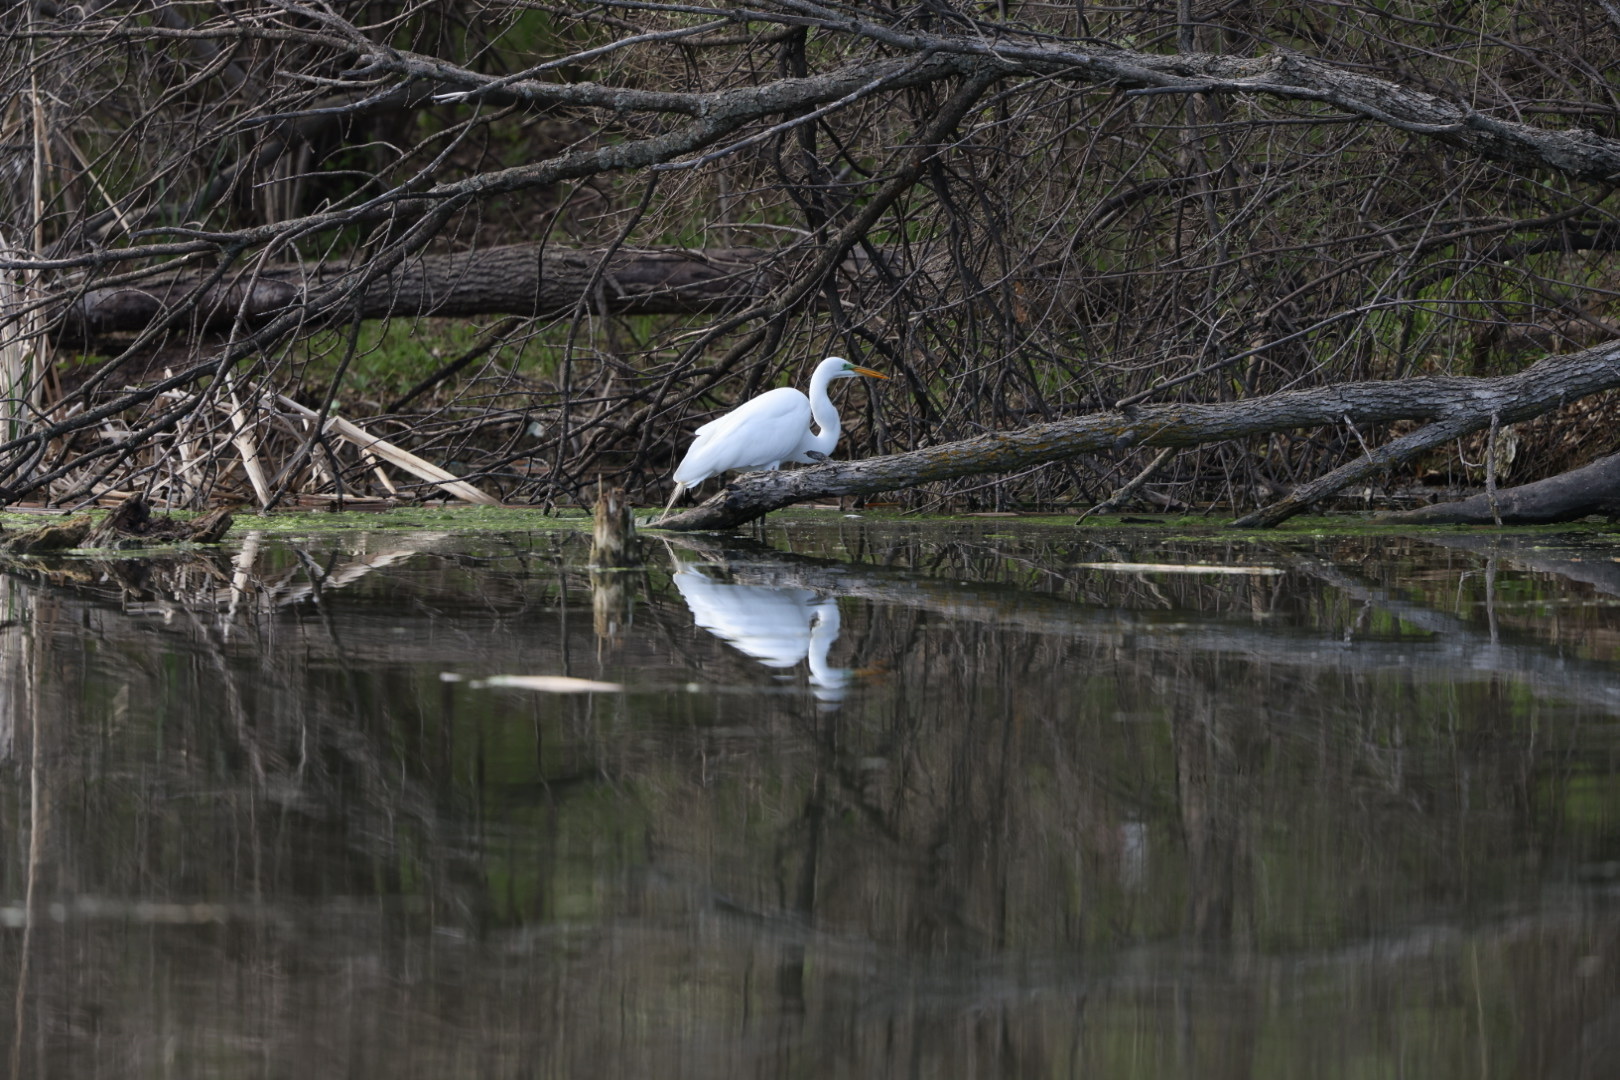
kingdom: Animalia
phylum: Chordata
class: Aves
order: Pelecaniformes
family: Ardeidae
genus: Ardea
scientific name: Ardea alba
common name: Great egret
